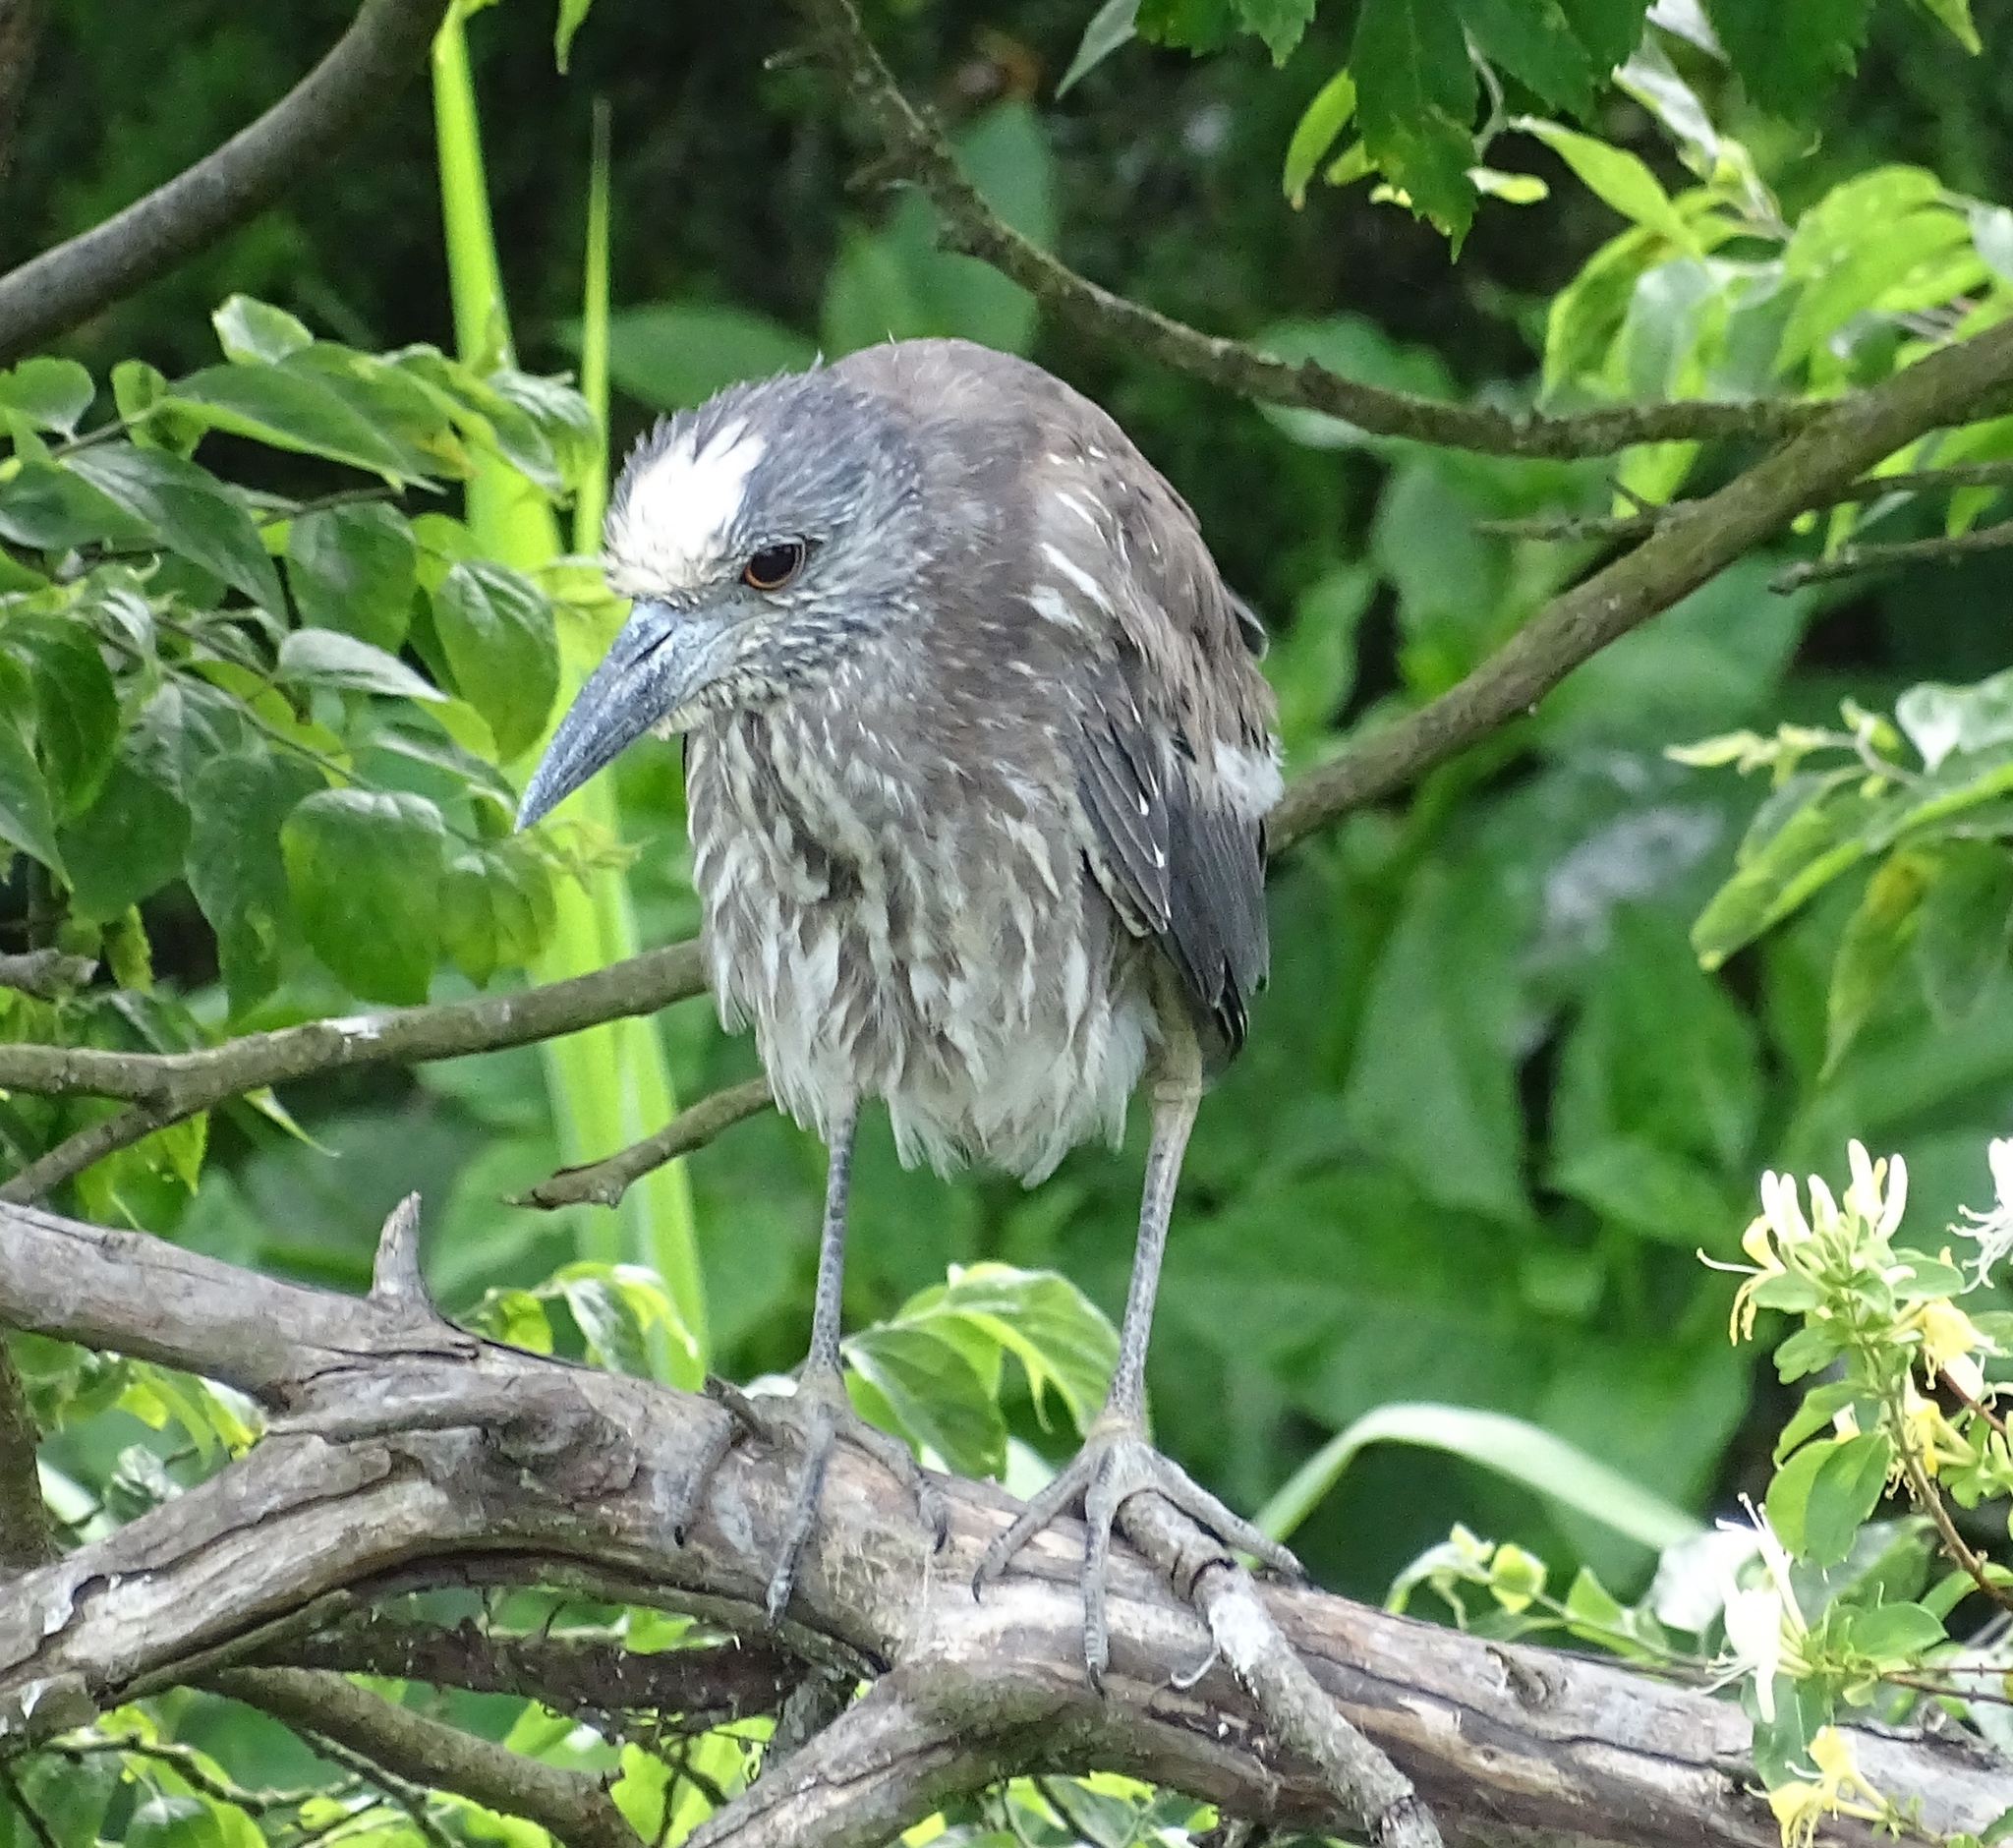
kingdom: Animalia
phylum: Chordata
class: Aves
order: Pelecaniformes
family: Ardeidae
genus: Nyctanassa
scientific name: Nyctanassa violacea
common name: Yellow-crowned night heron
